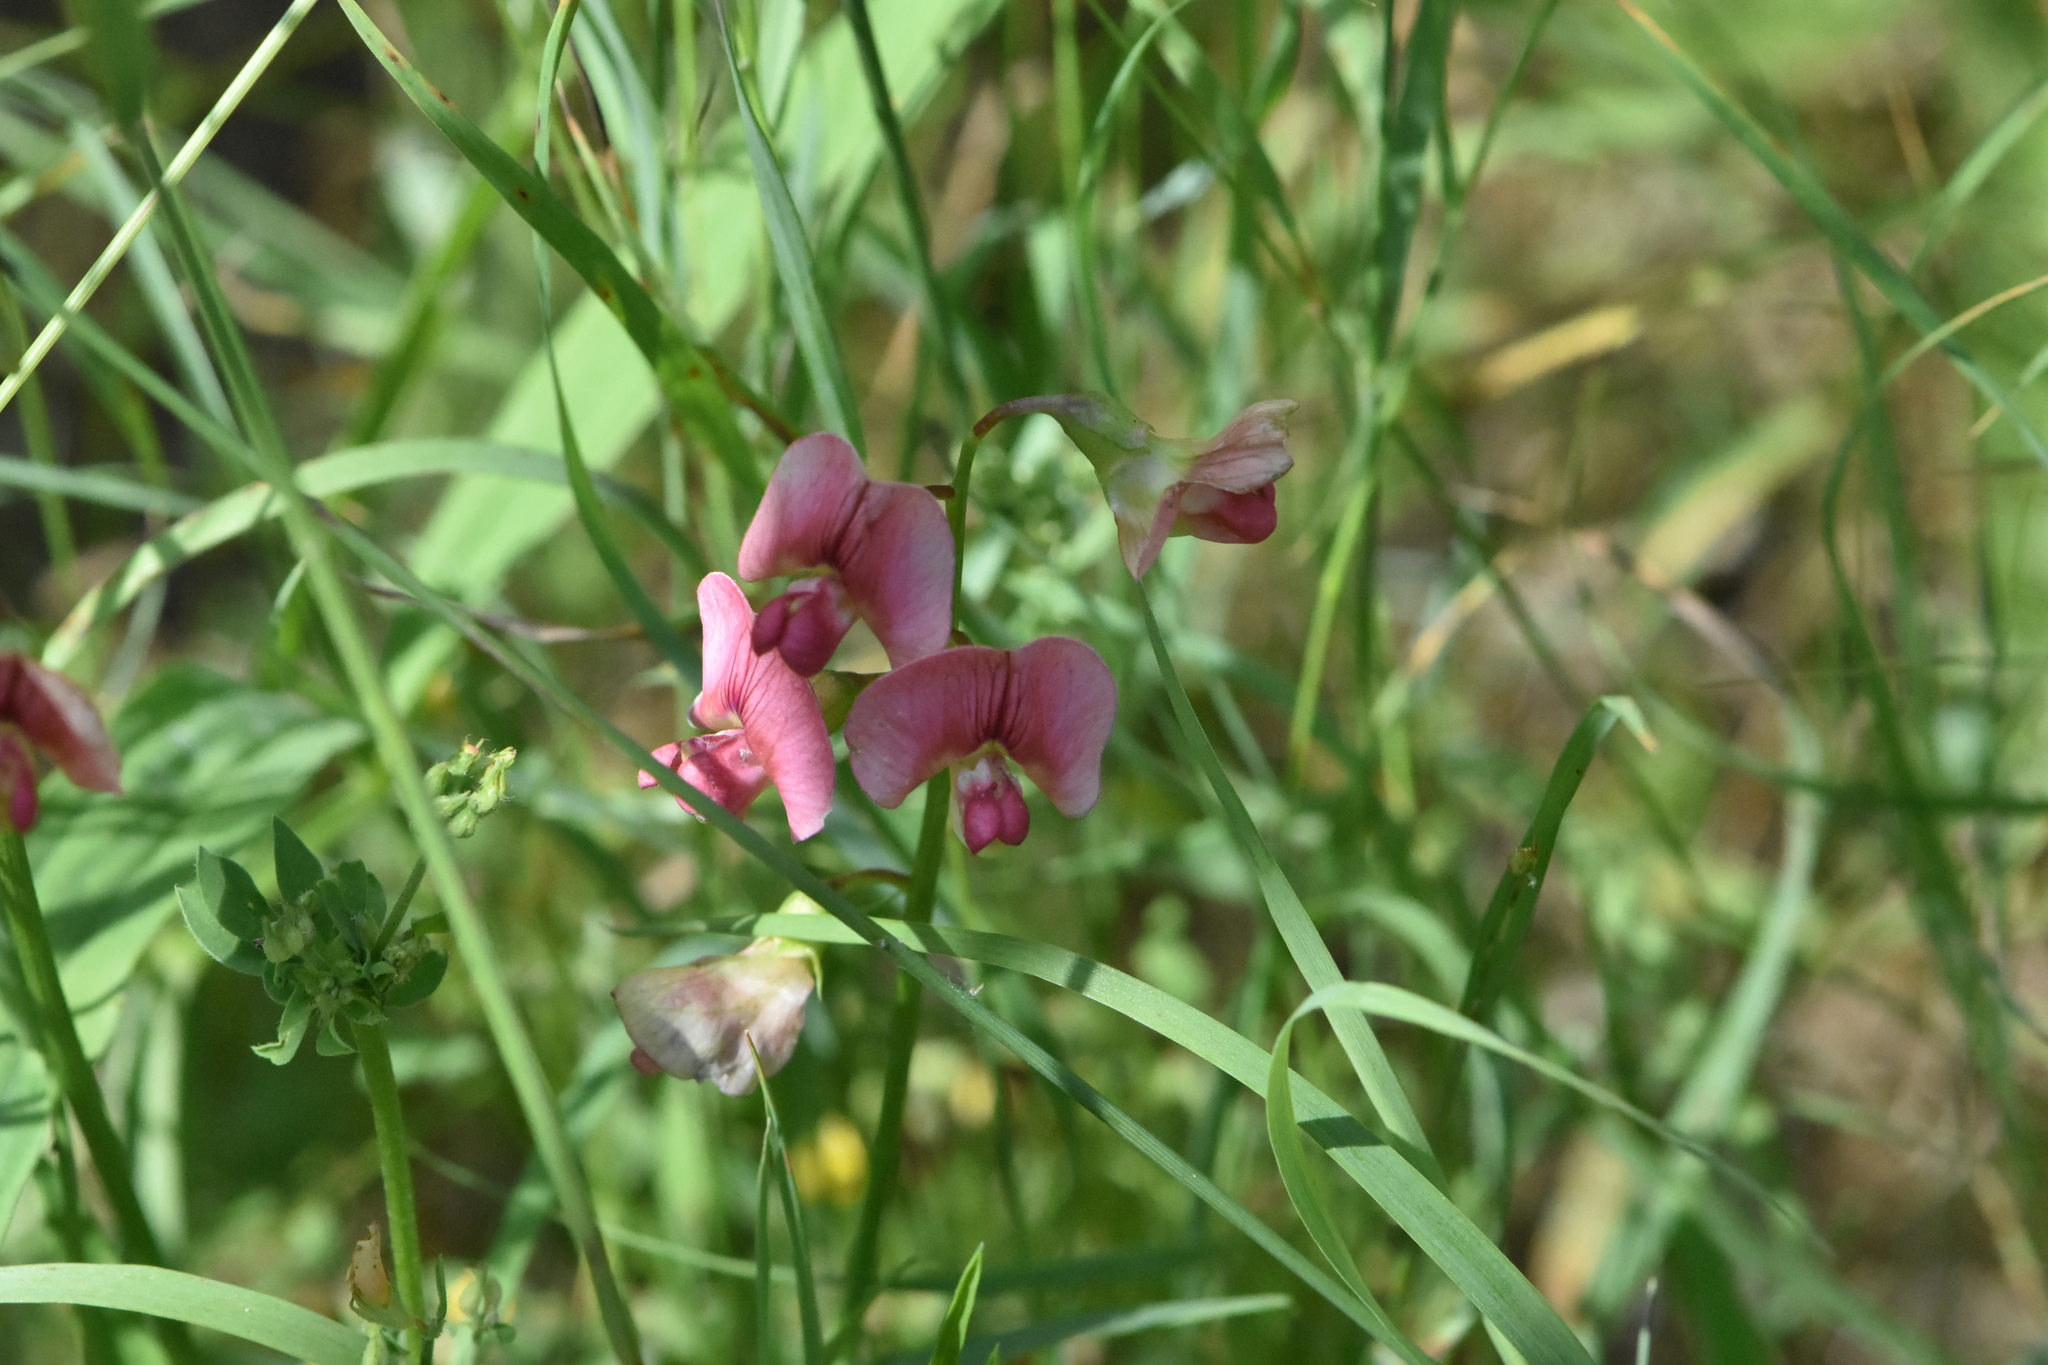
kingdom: Plantae
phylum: Tracheophyta
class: Magnoliopsida
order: Fabales
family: Fabaceae
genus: Lathyrus
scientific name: Lathyrus sylvestris
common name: Flat pea
